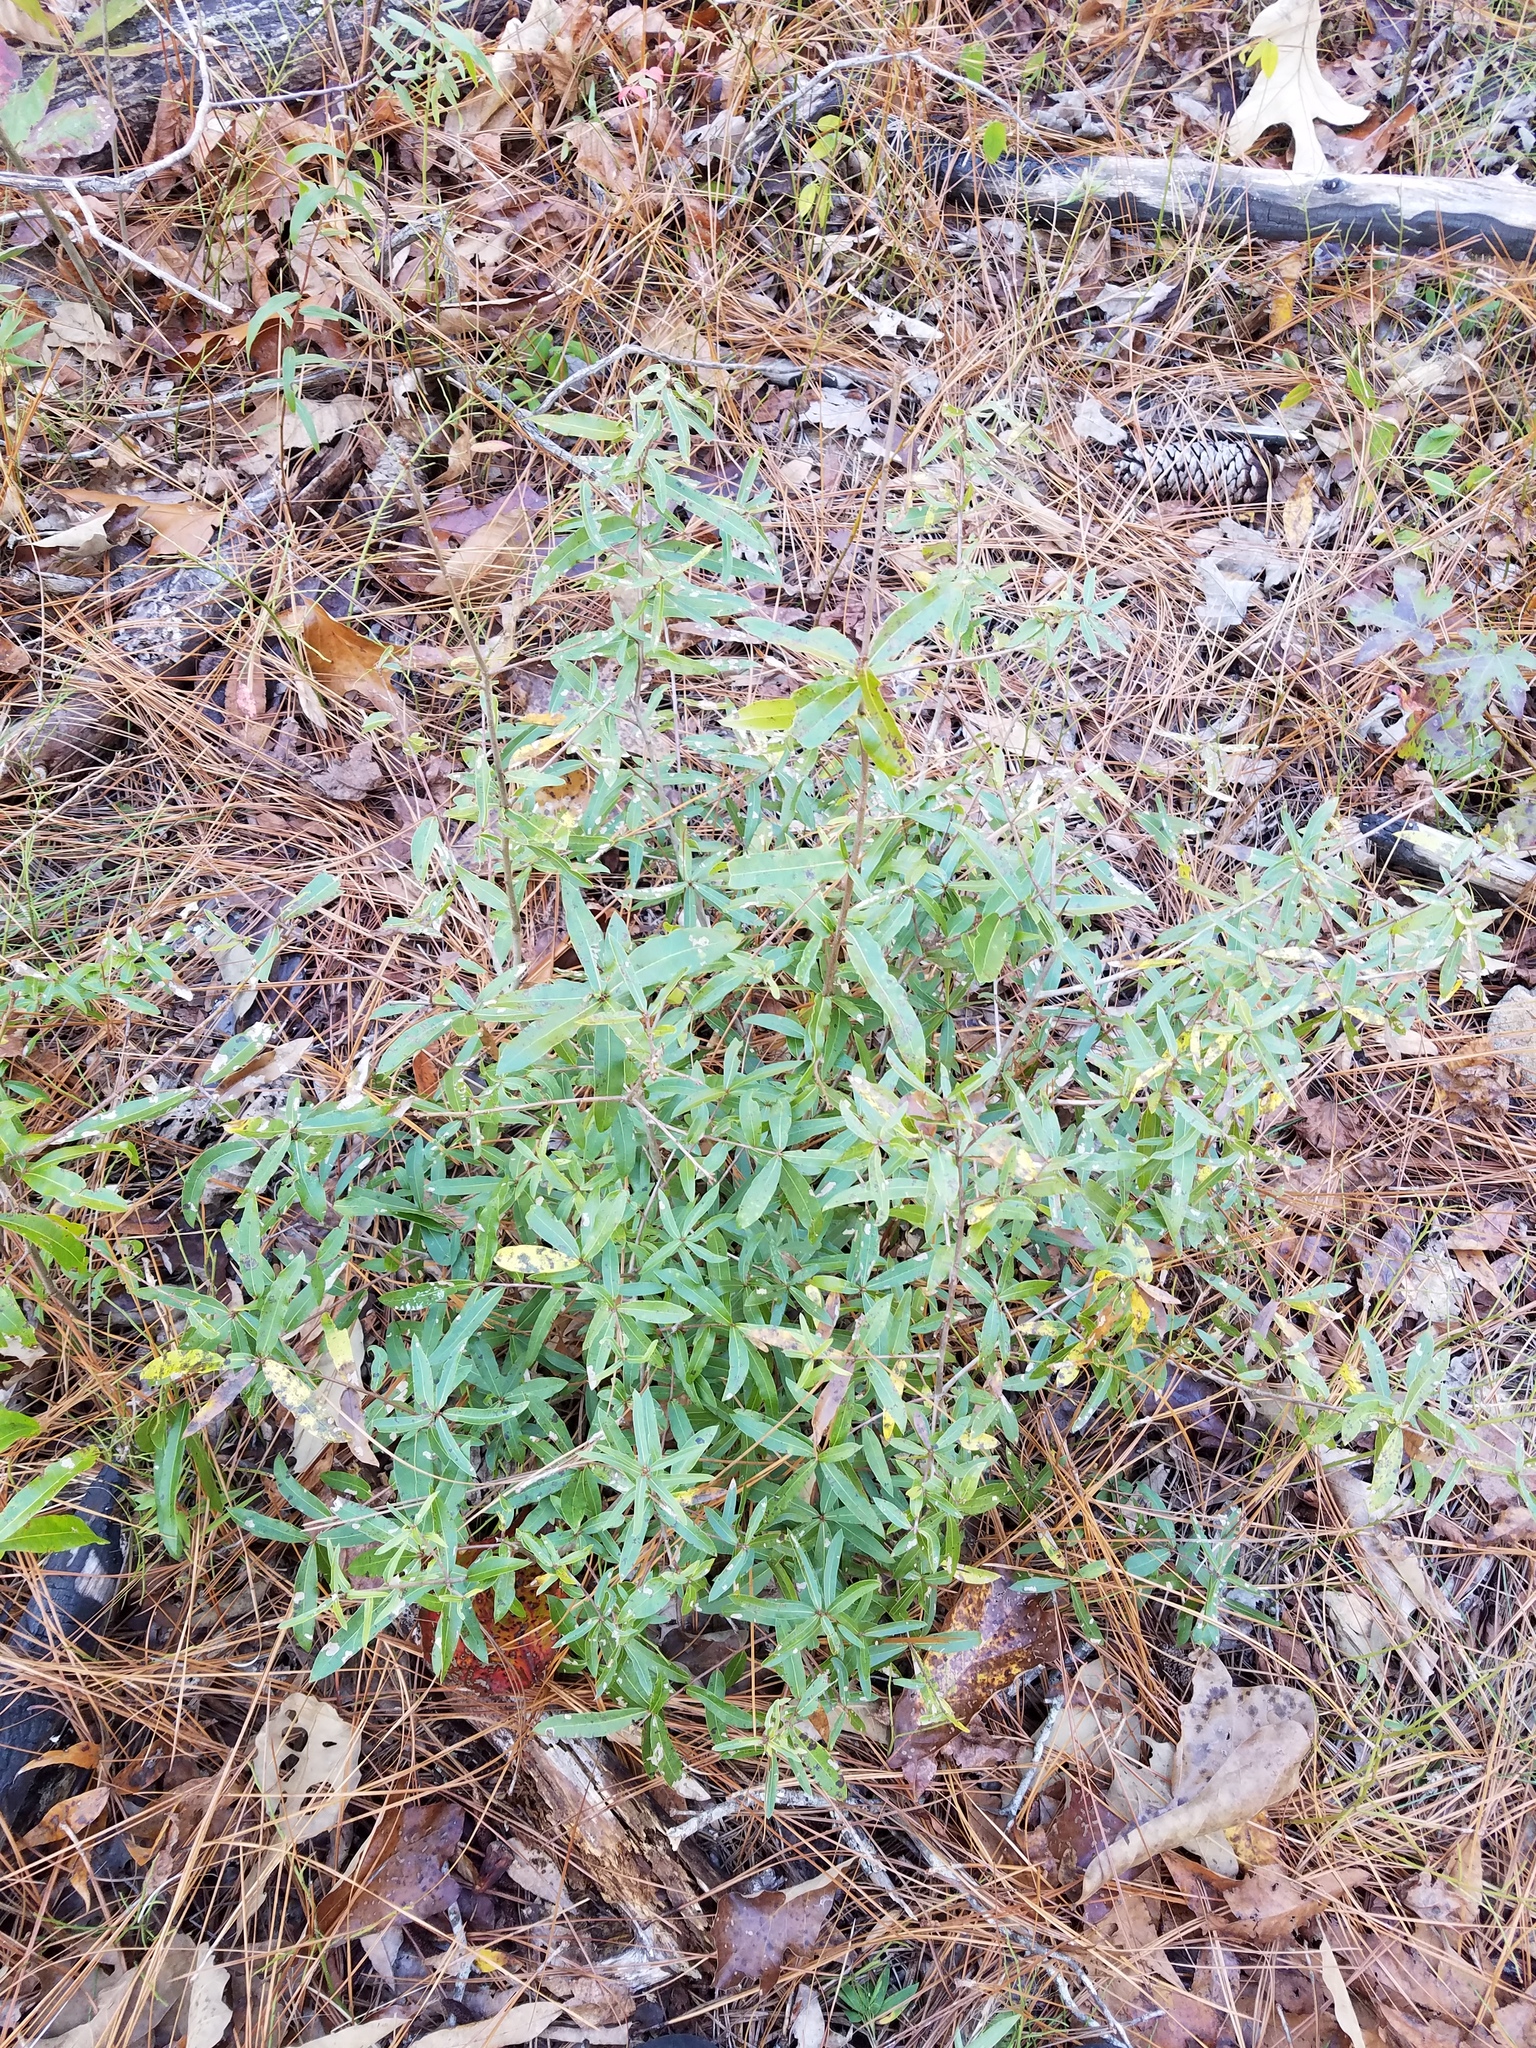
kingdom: Plantae
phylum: Tracheophyta
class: Magnoliopsida
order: Fagales
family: Fagaceae
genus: Quercus
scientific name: Quercus hemisphaerica
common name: Darlington oak
